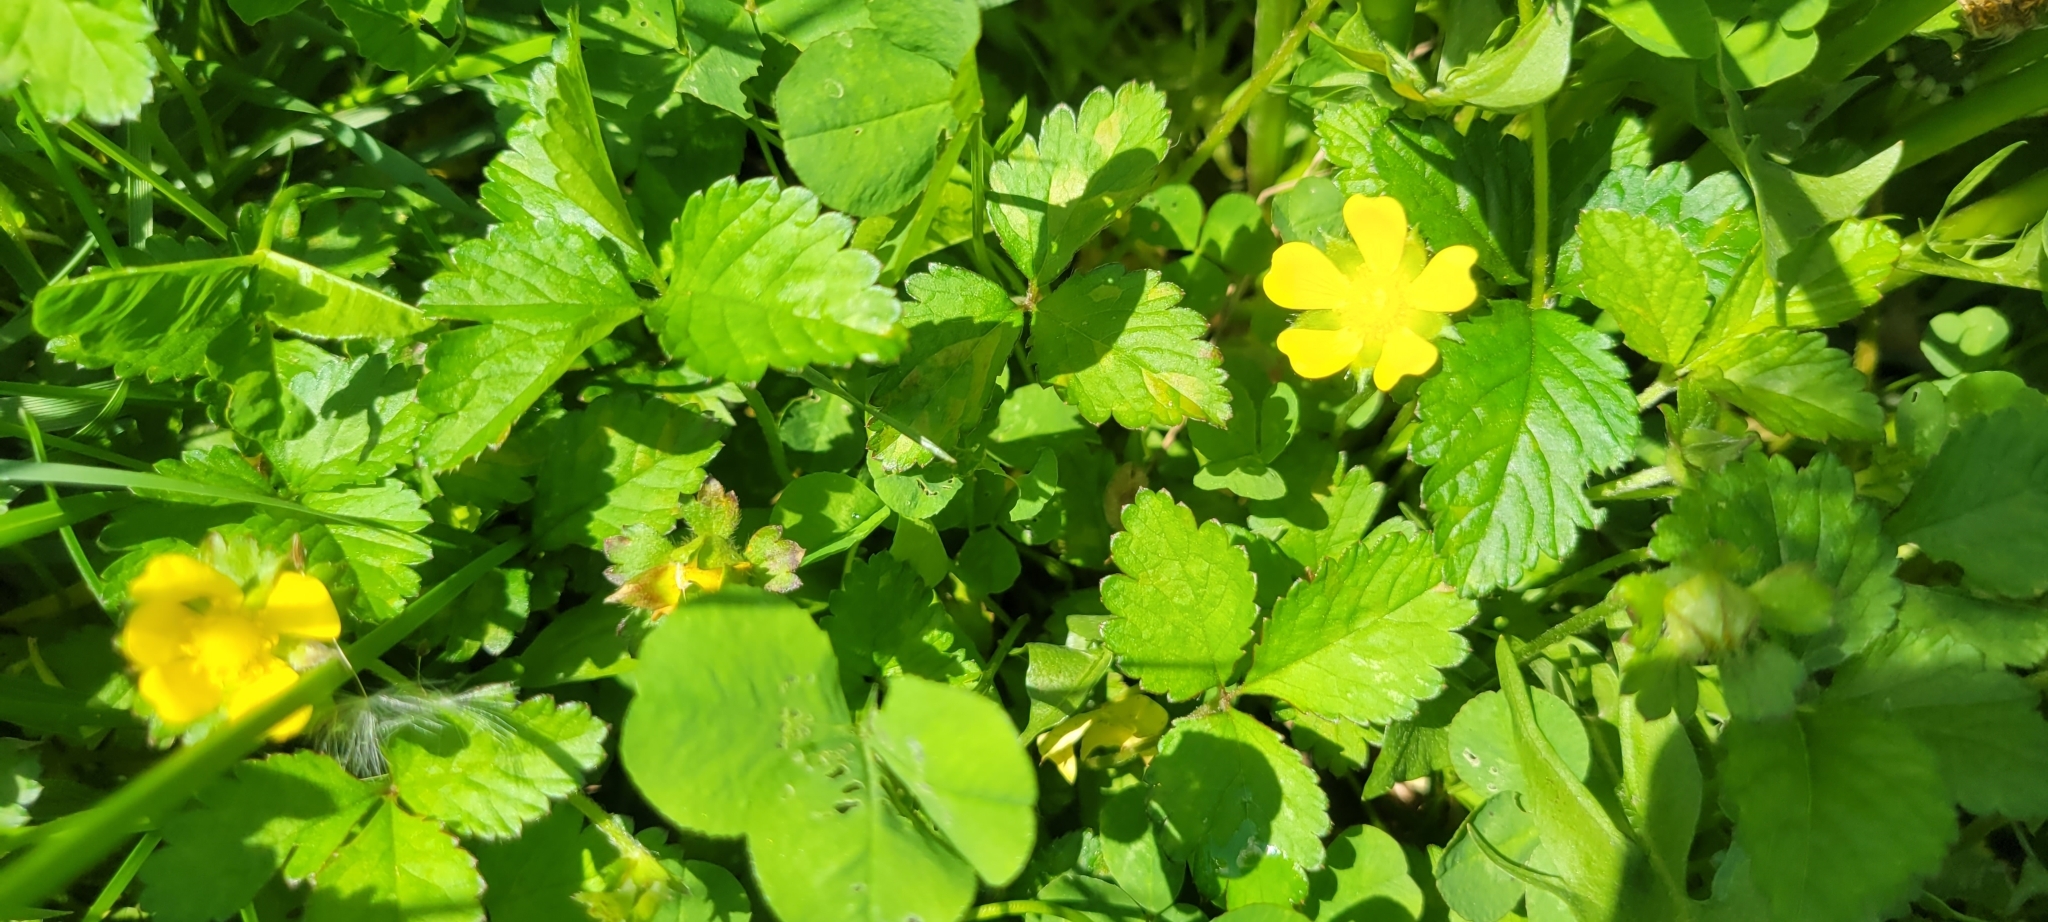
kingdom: Plantae
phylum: Tracheophyta
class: Magnoliopsida
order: Rosales
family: Rosaceae
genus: Potentilla
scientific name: Potentilla indica
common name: Yellow-flowered strawberry
